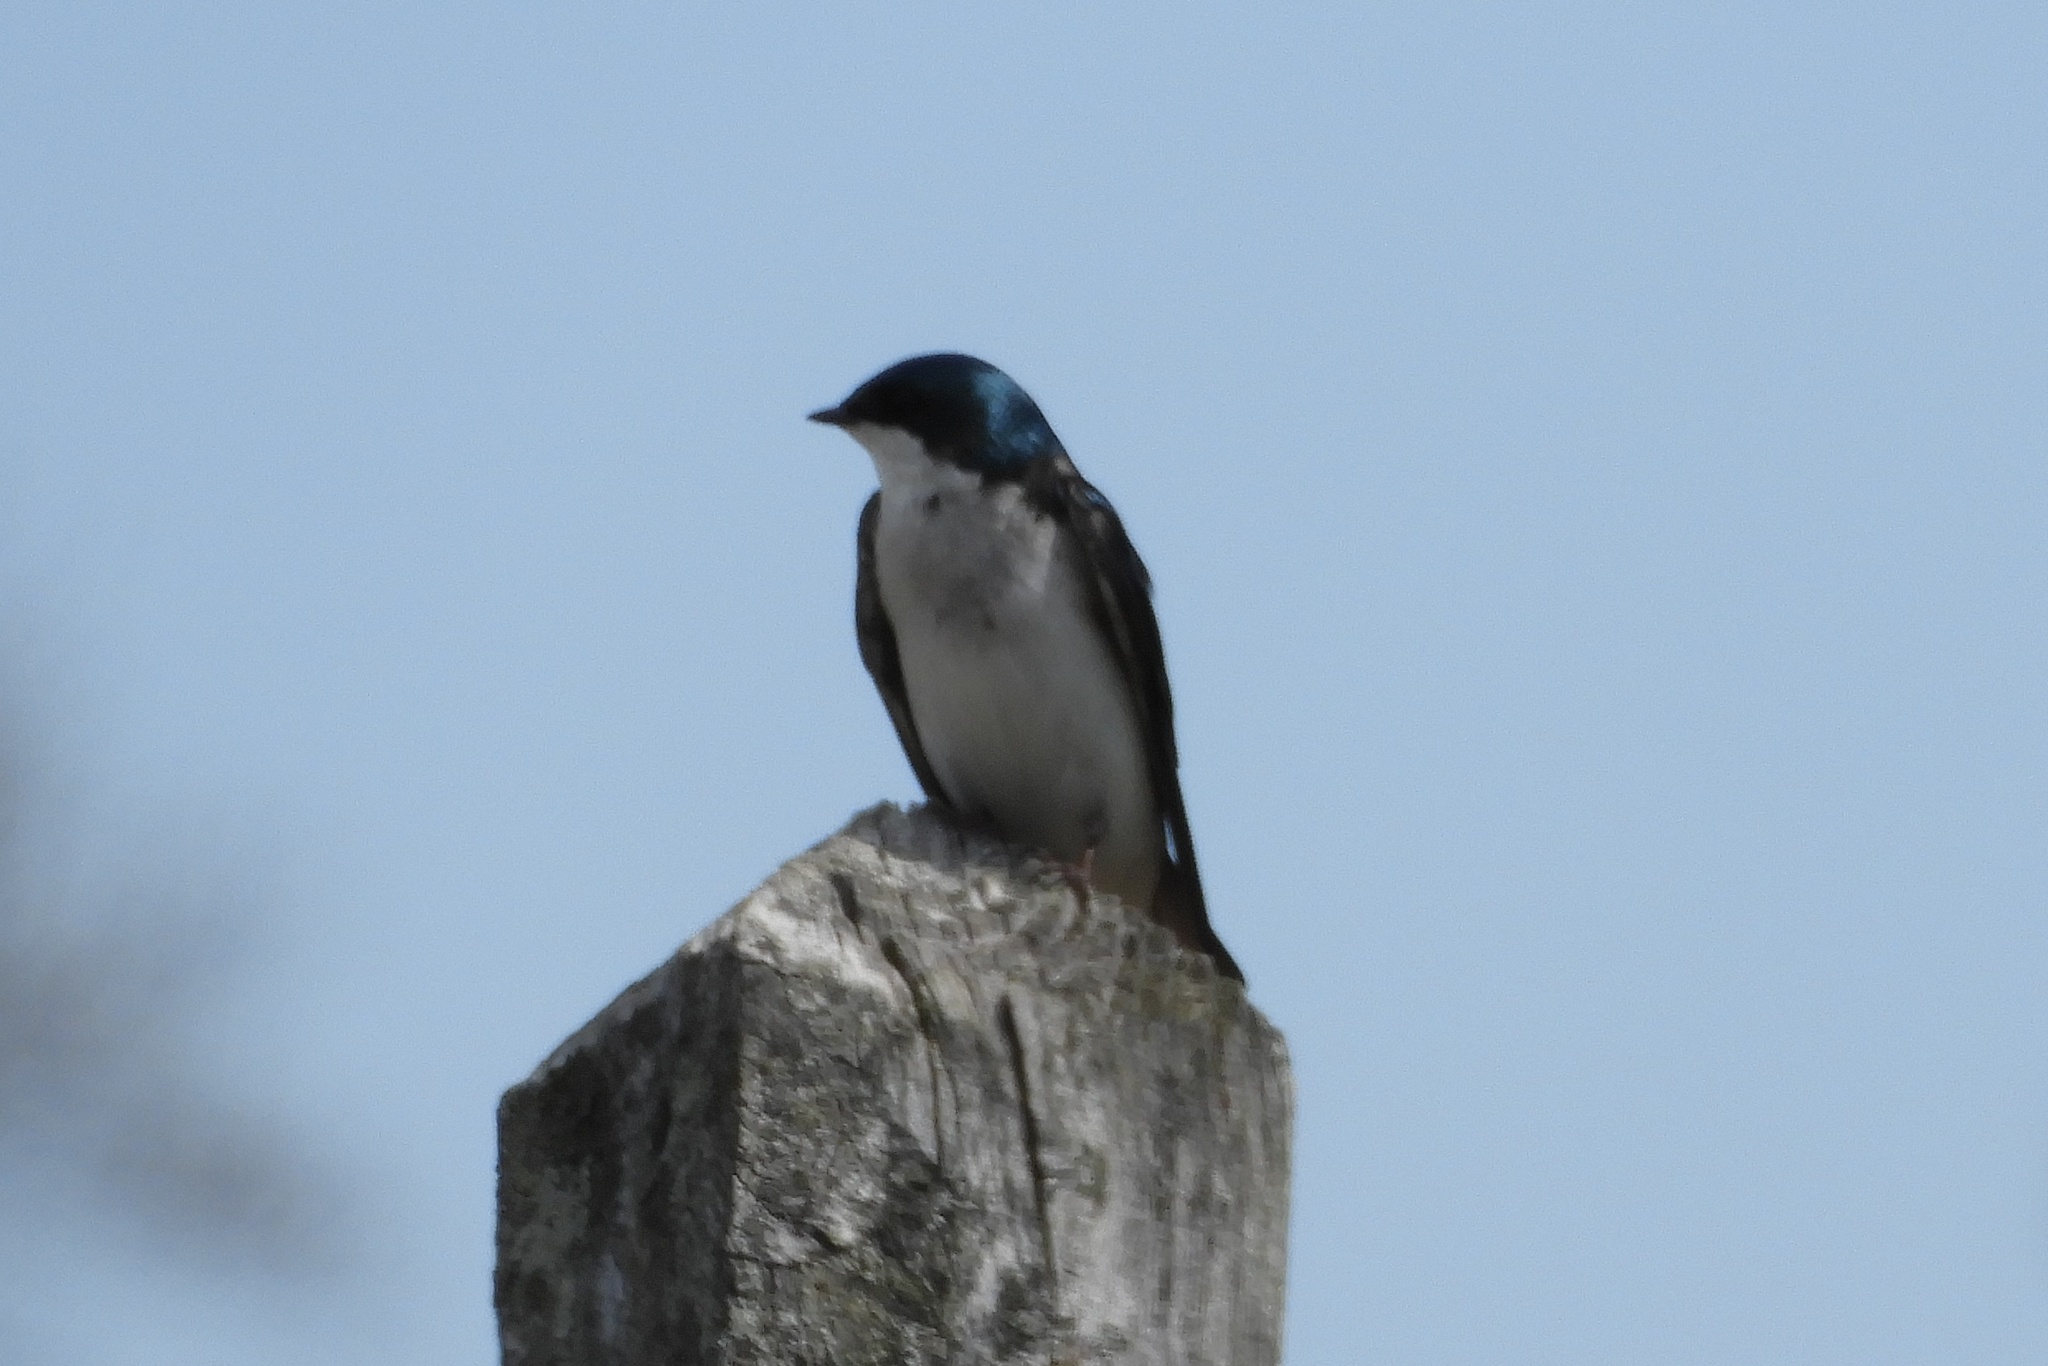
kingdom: Animalia
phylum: Chordata
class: Aves
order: Passeriformes
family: Hirundinidae
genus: Tachycineta
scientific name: Tachycineta bicolor
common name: Tree swallow
